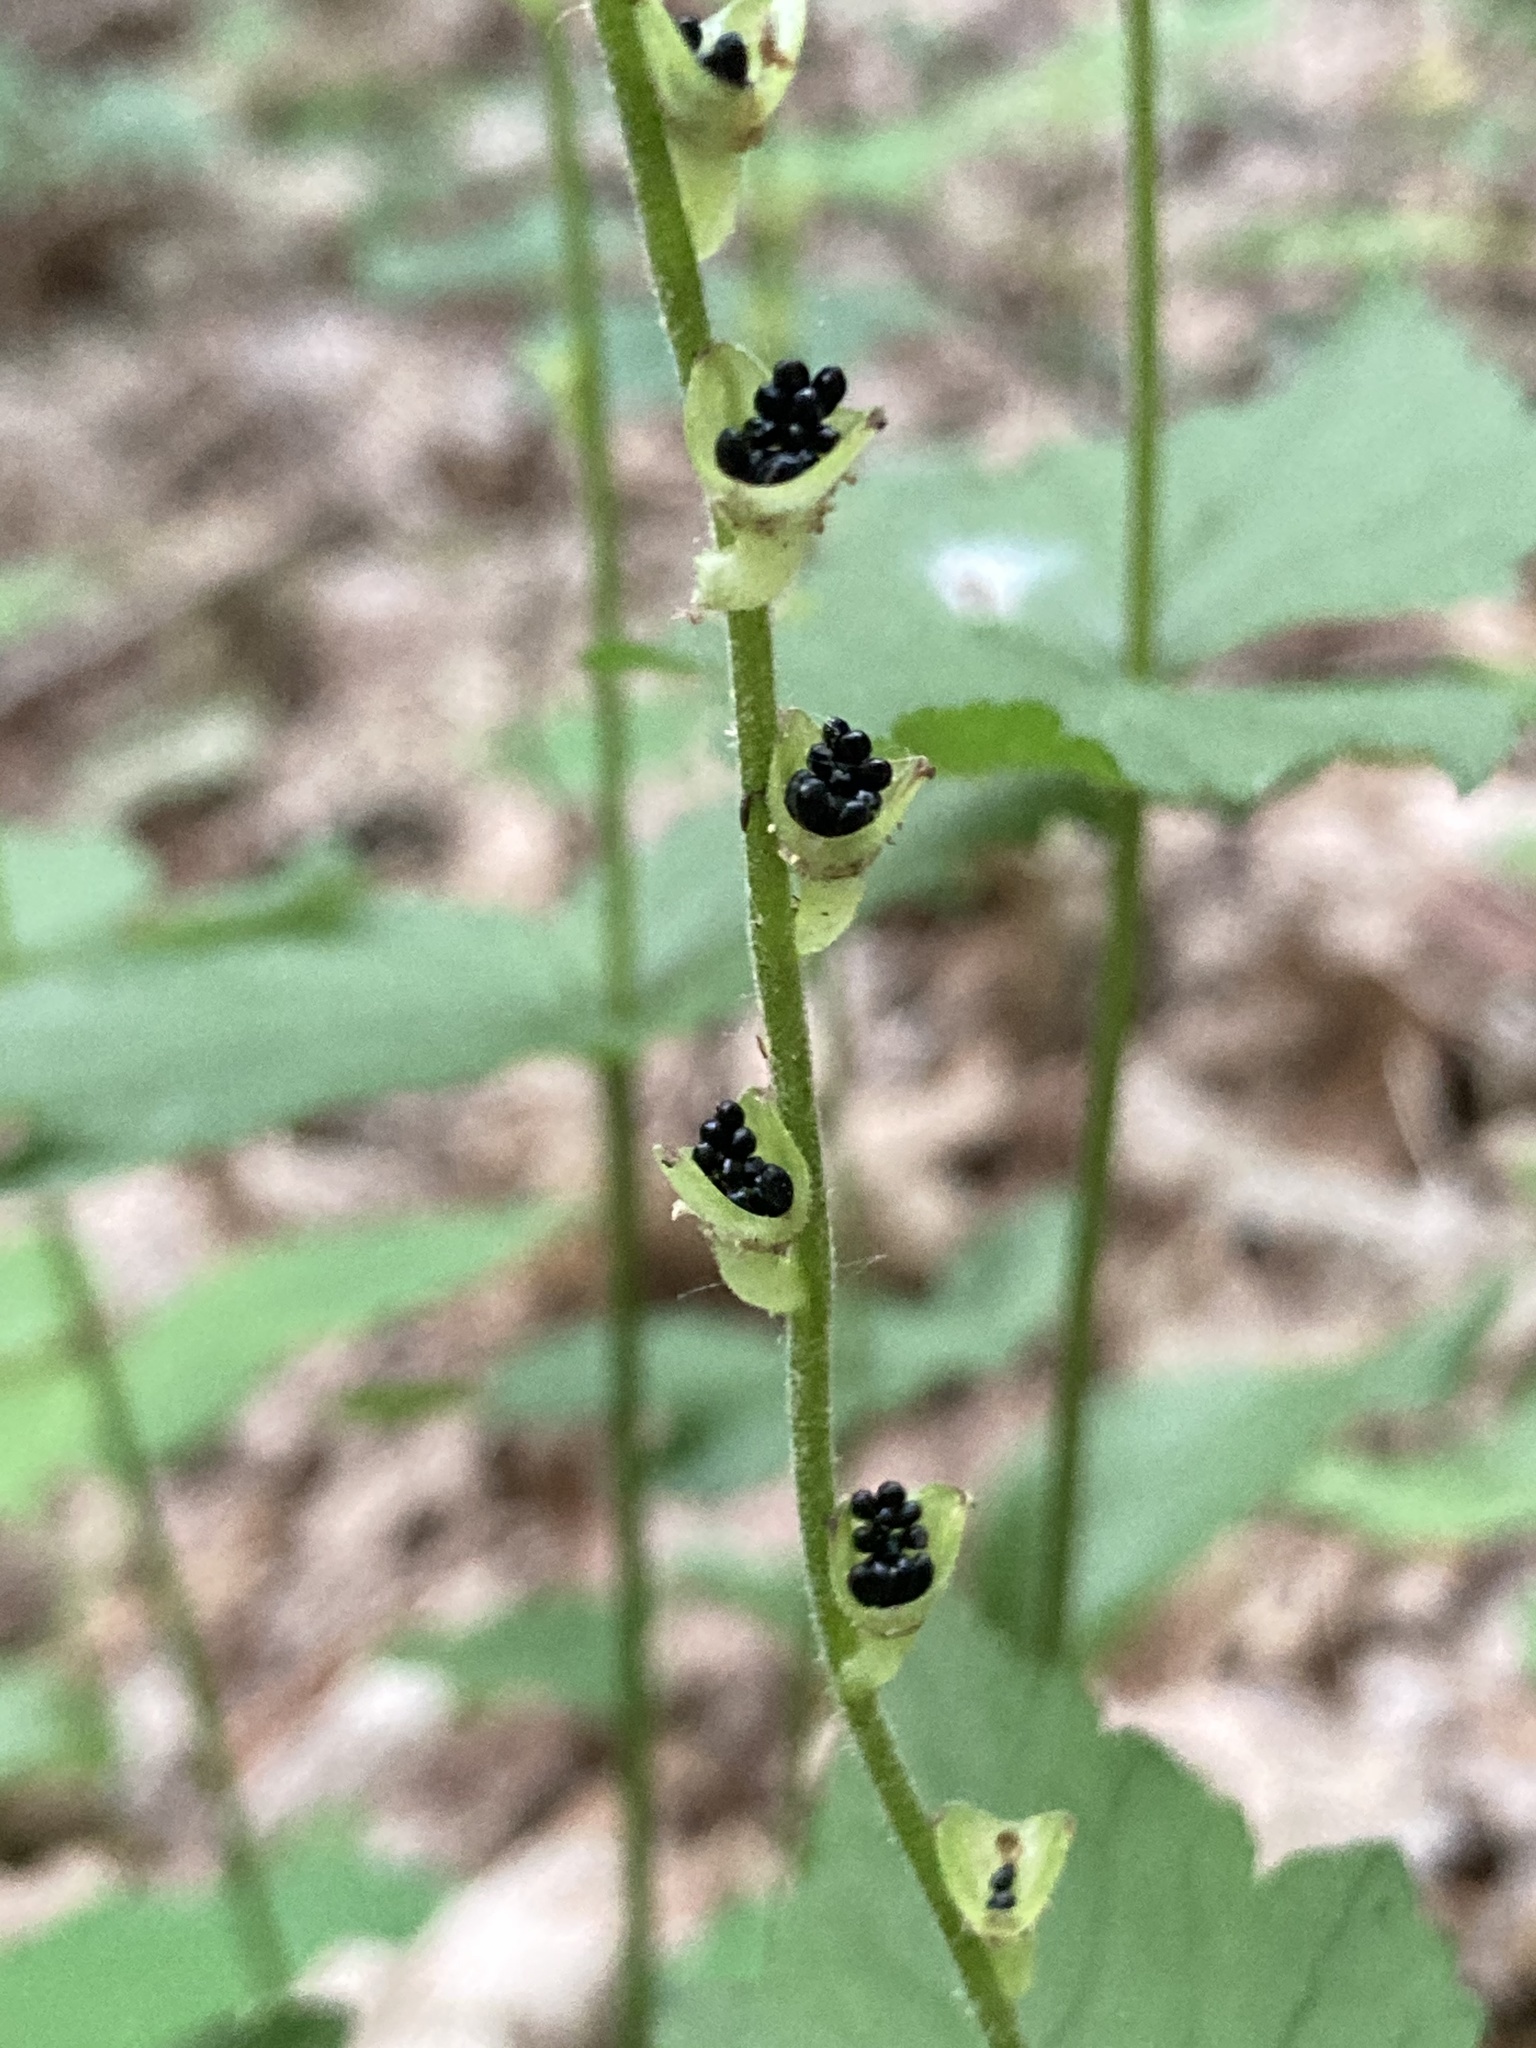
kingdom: Plantae
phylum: Tracheophyta
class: Magnoliopsida
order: Saxifragales
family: Saxifragaceae
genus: Mitella
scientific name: Mitella diphylla
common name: Coolwort
